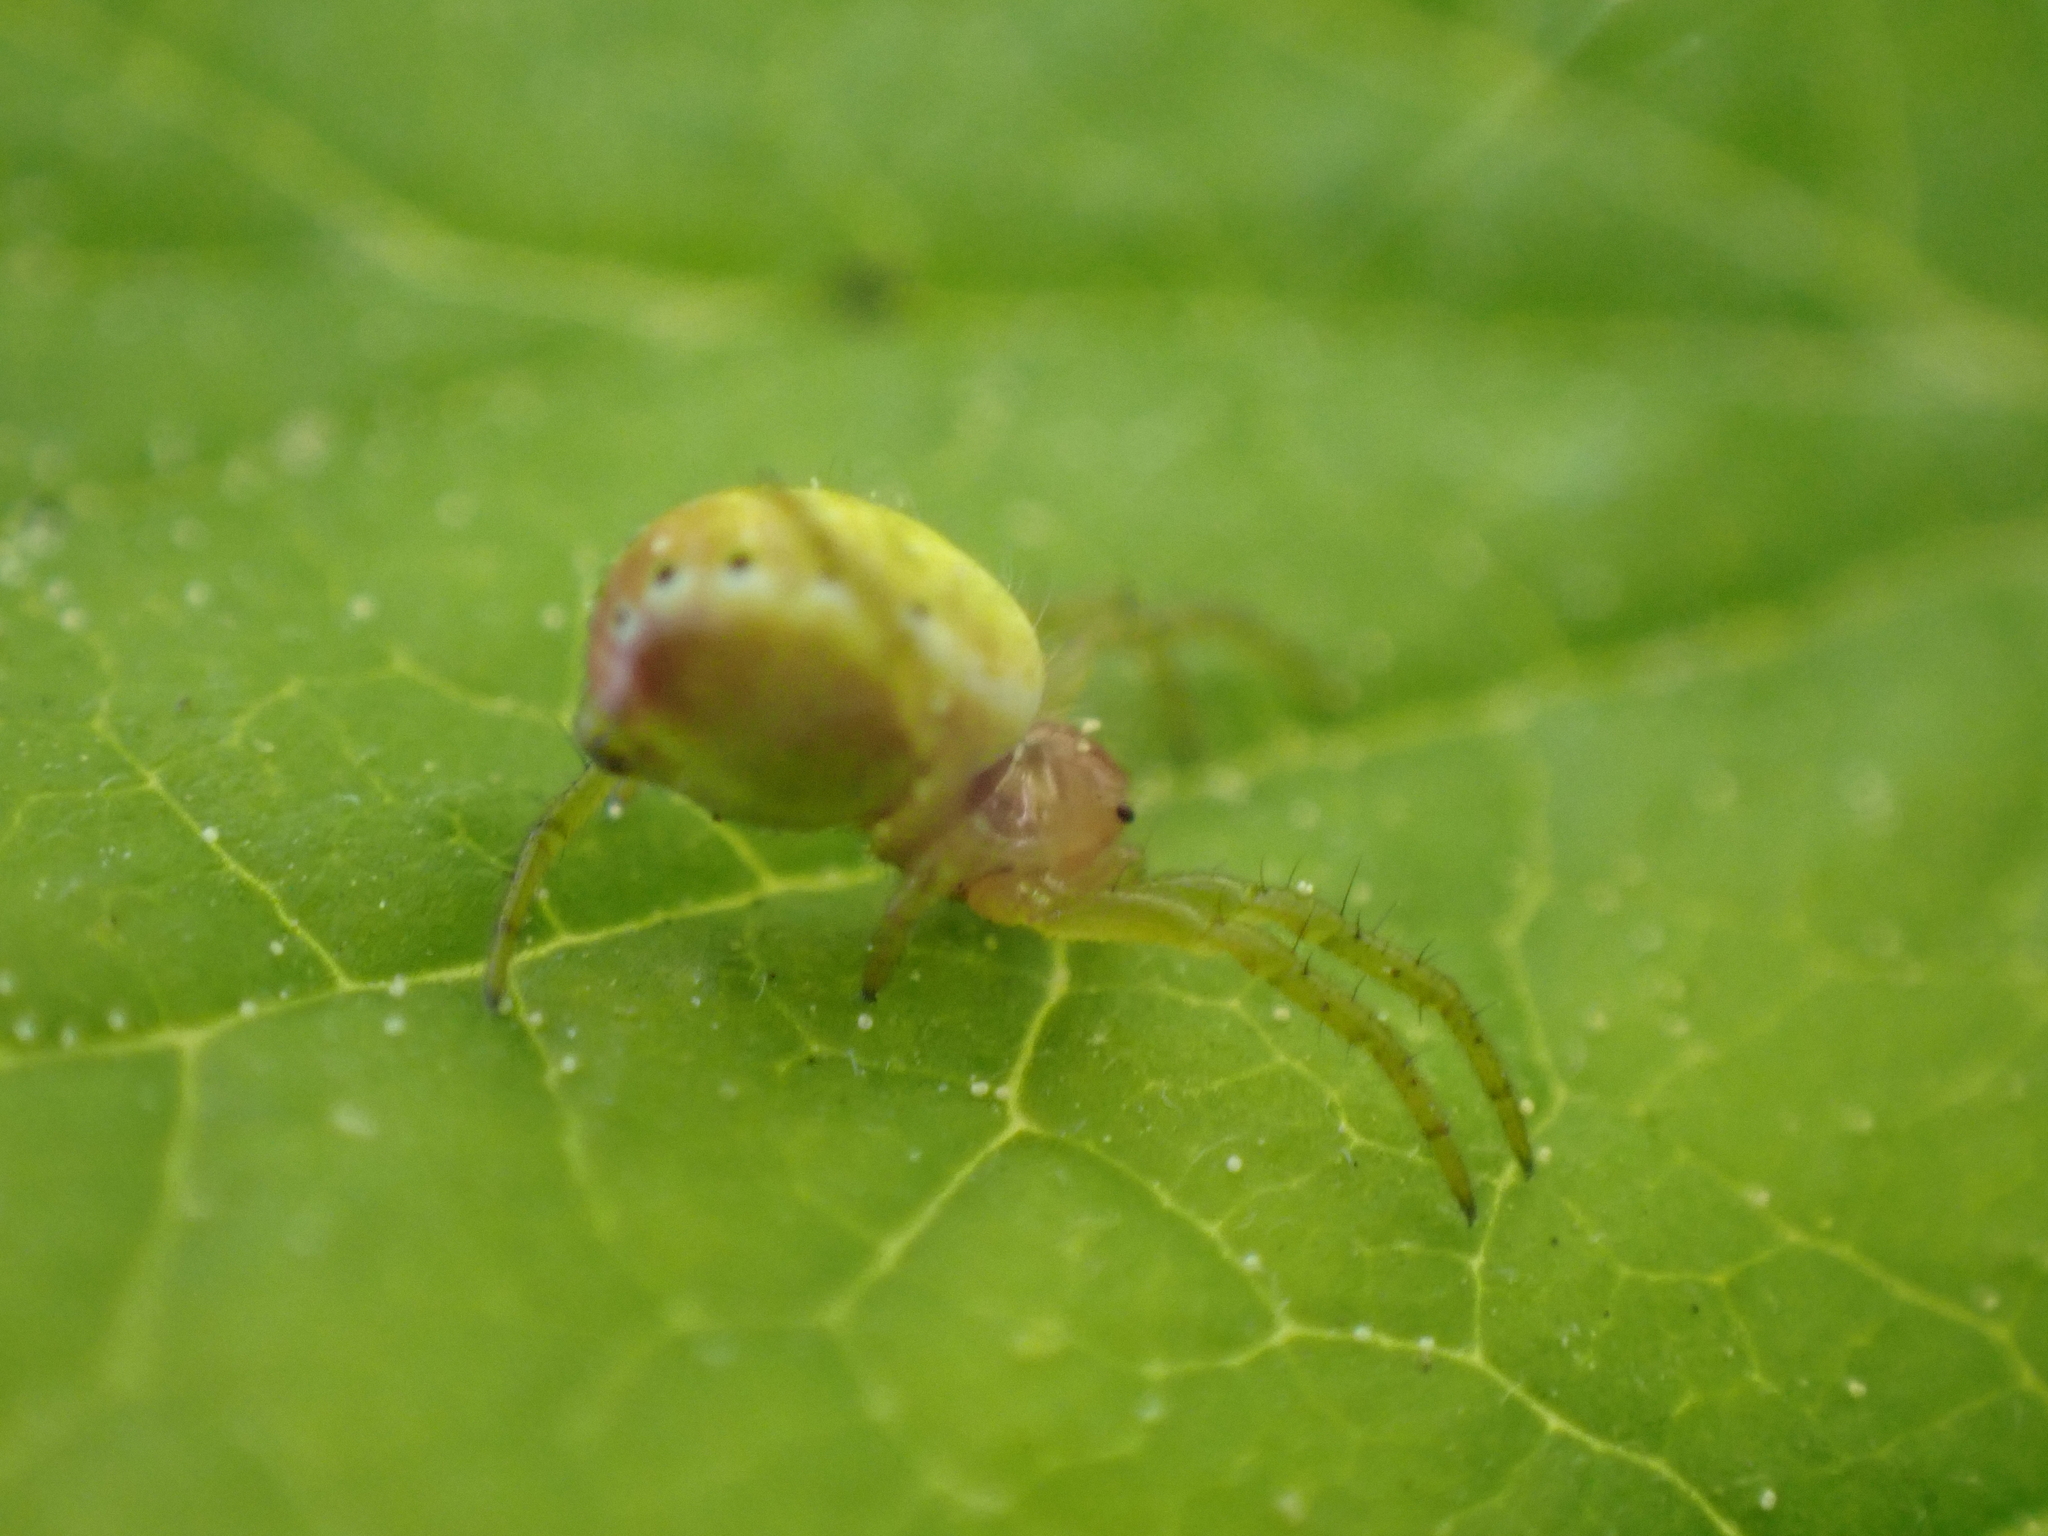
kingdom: Animalia
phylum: Arthropoda
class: Arachnida
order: Araneae
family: Araneidae
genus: Araniella
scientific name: Araniella
